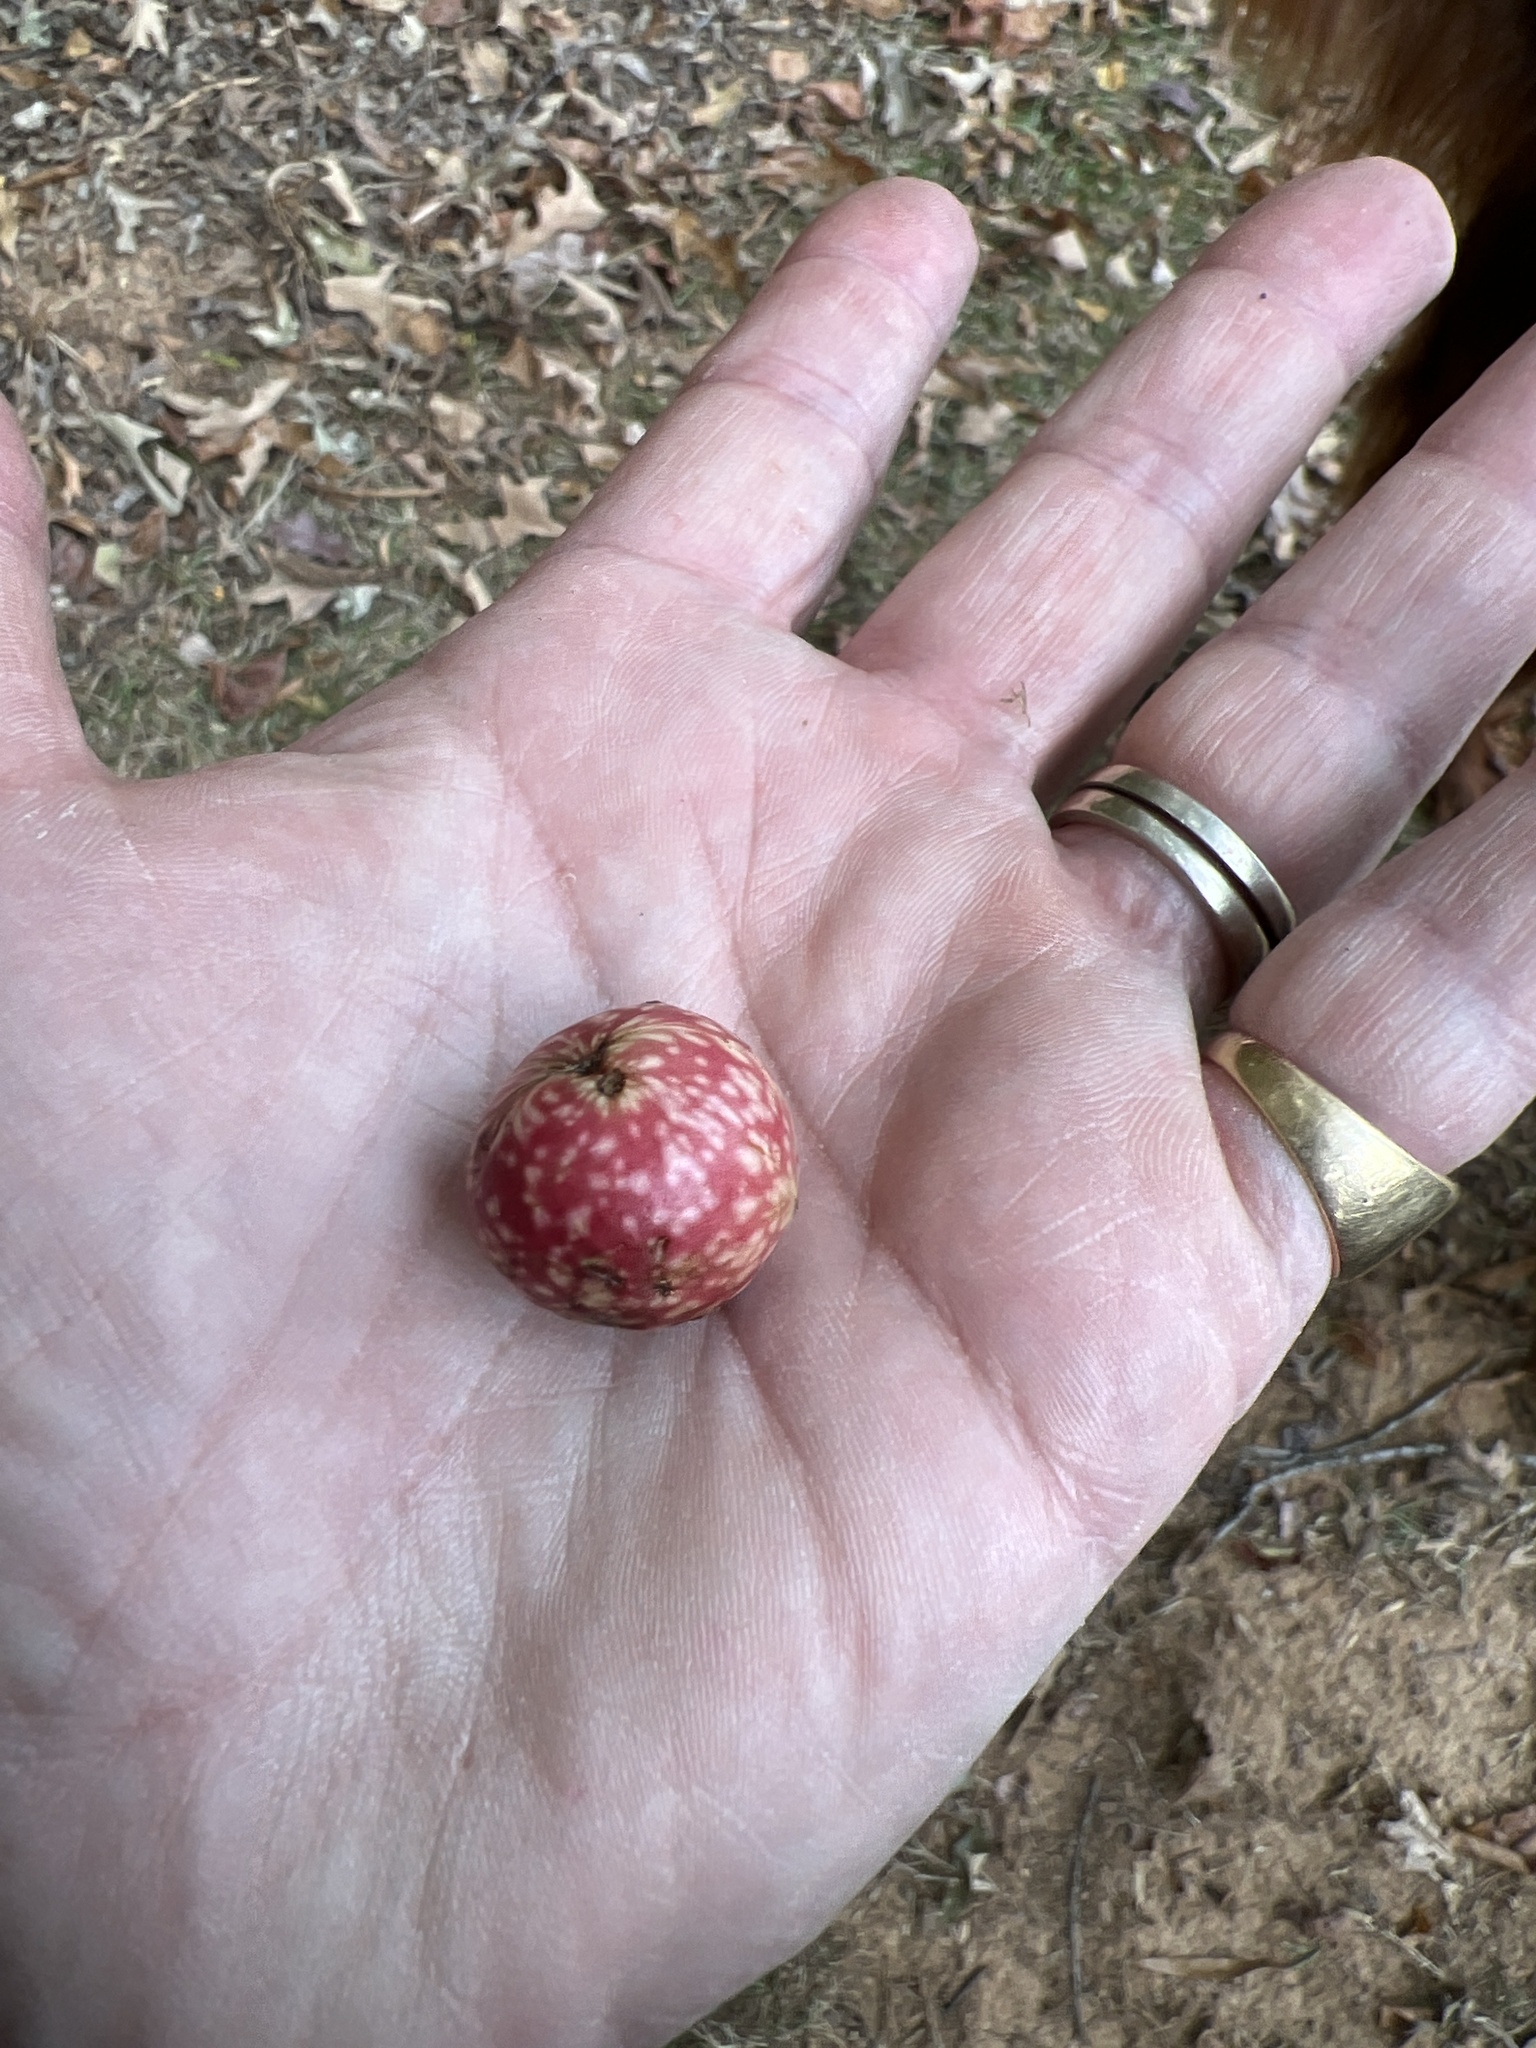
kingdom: Animalia
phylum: Arthropoda
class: Insecta
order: Hymenoptera
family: Cynipidae
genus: Amphibolips
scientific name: Amphibolips
